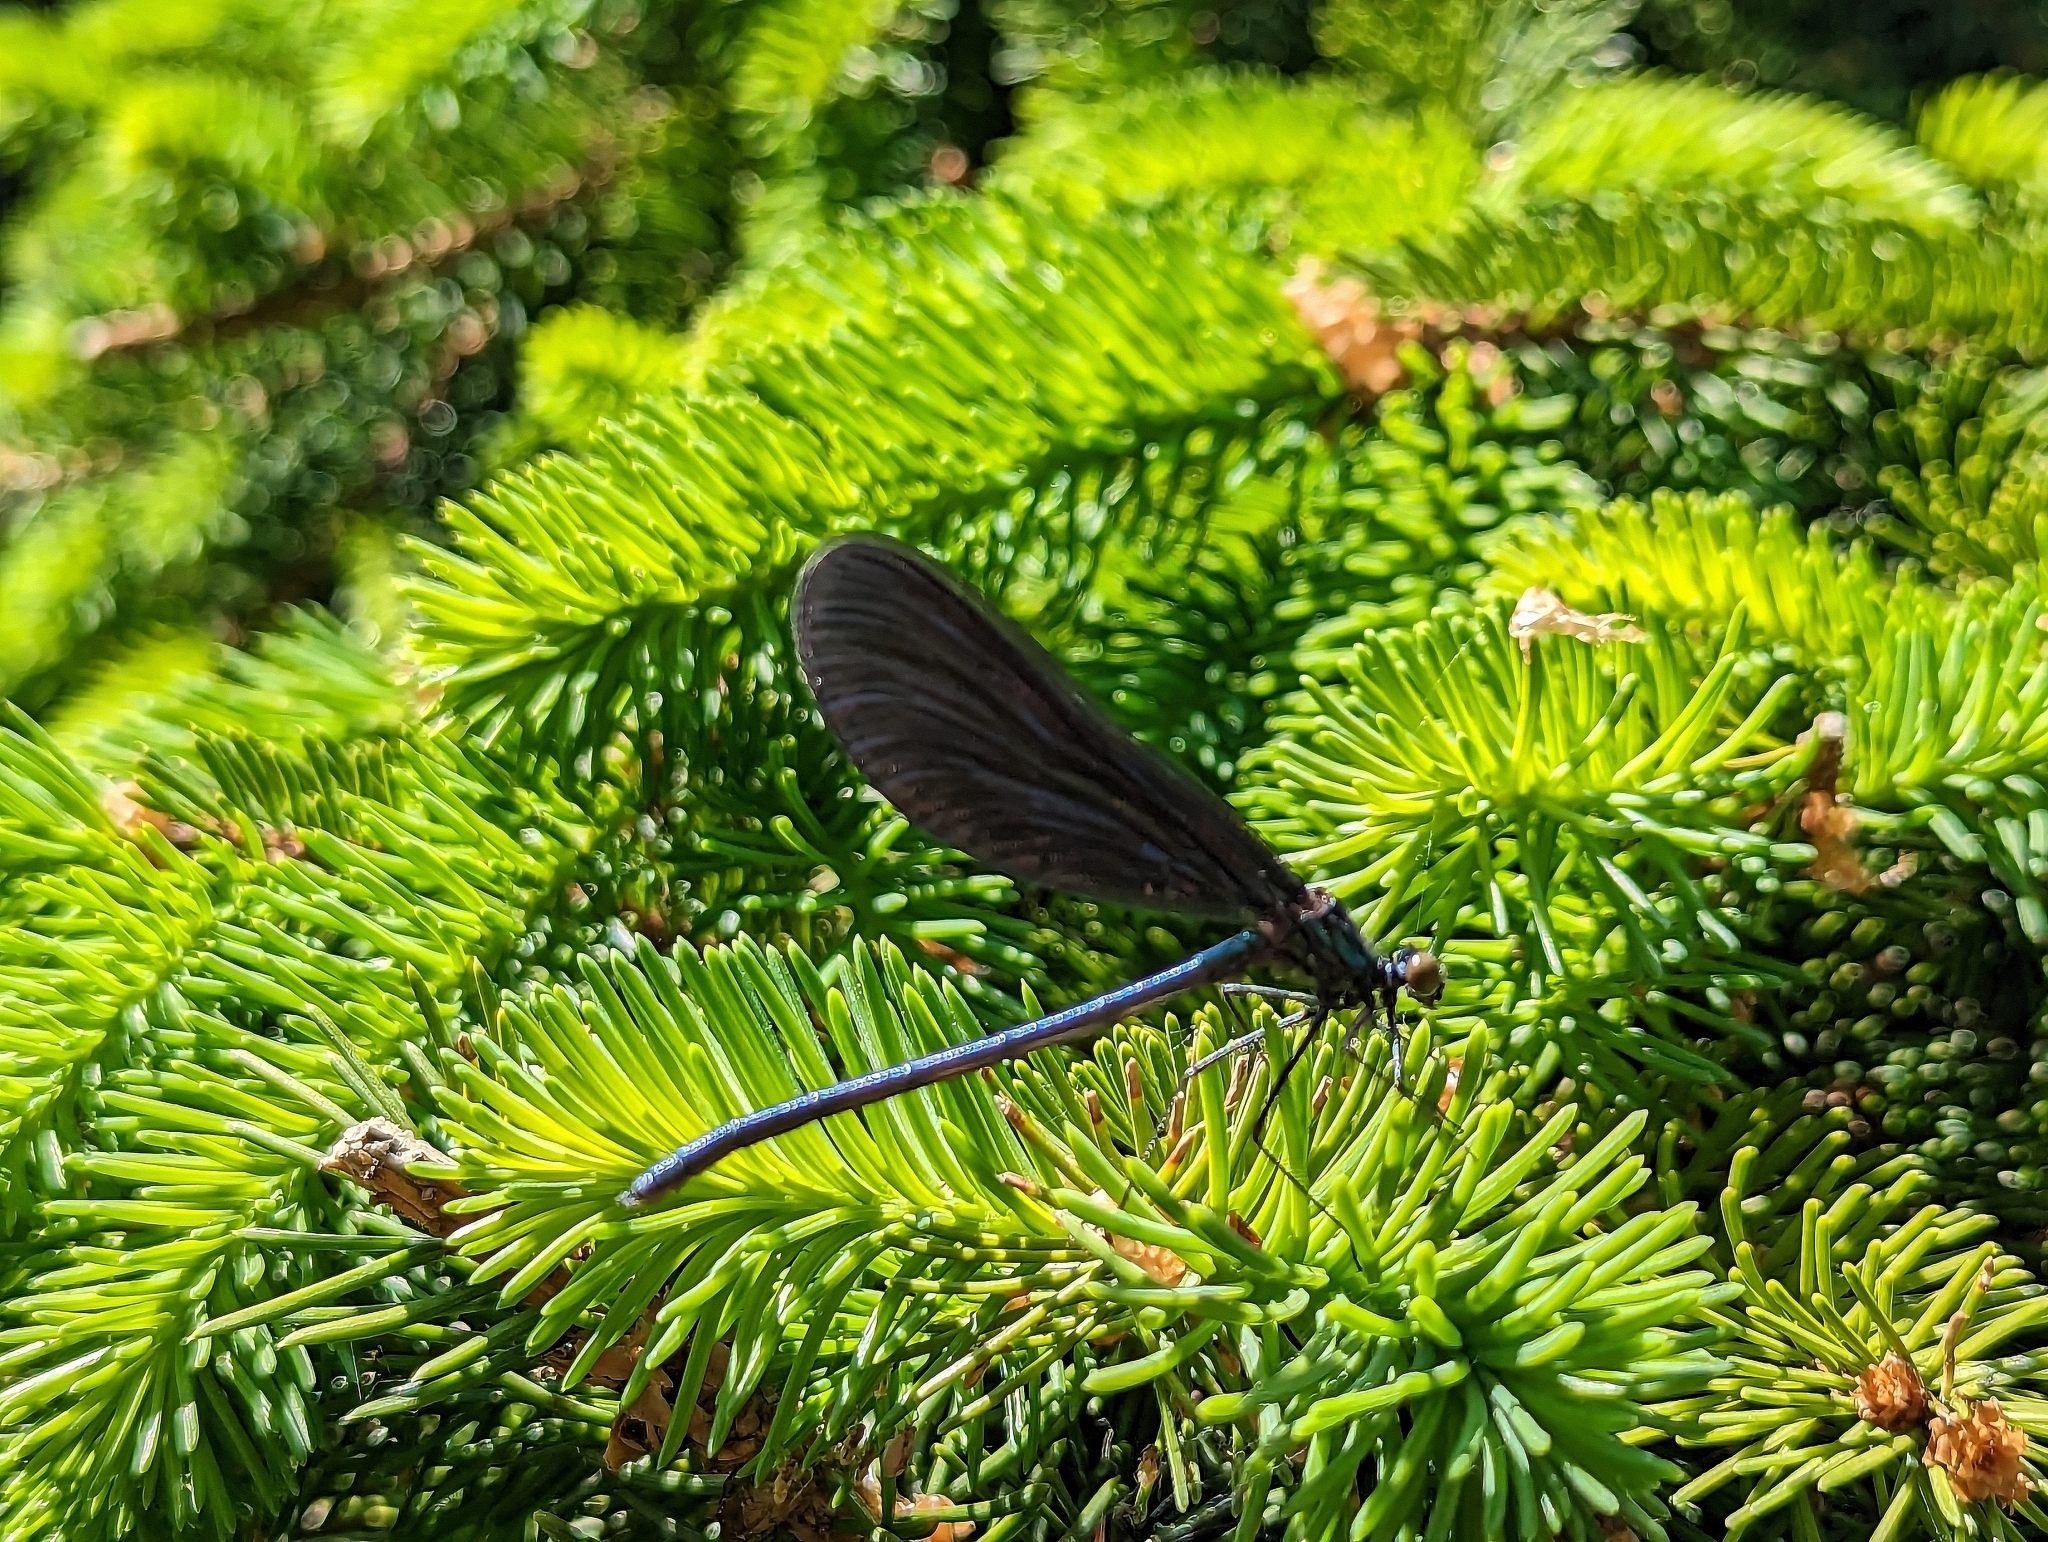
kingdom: Animalia
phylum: Arthropoda
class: Insecta
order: Odonata
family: Calopterygidae
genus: Calopteryx
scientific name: Calopteryx maculata
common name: Ebony jewelwing
